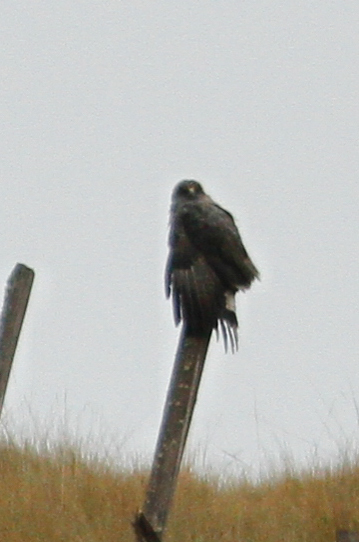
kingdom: Animalia
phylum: Chordata
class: Aves
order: Accipitriformes
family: Accipitridae
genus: Buteo
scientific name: Buteo polyosoma
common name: Variable hawk
